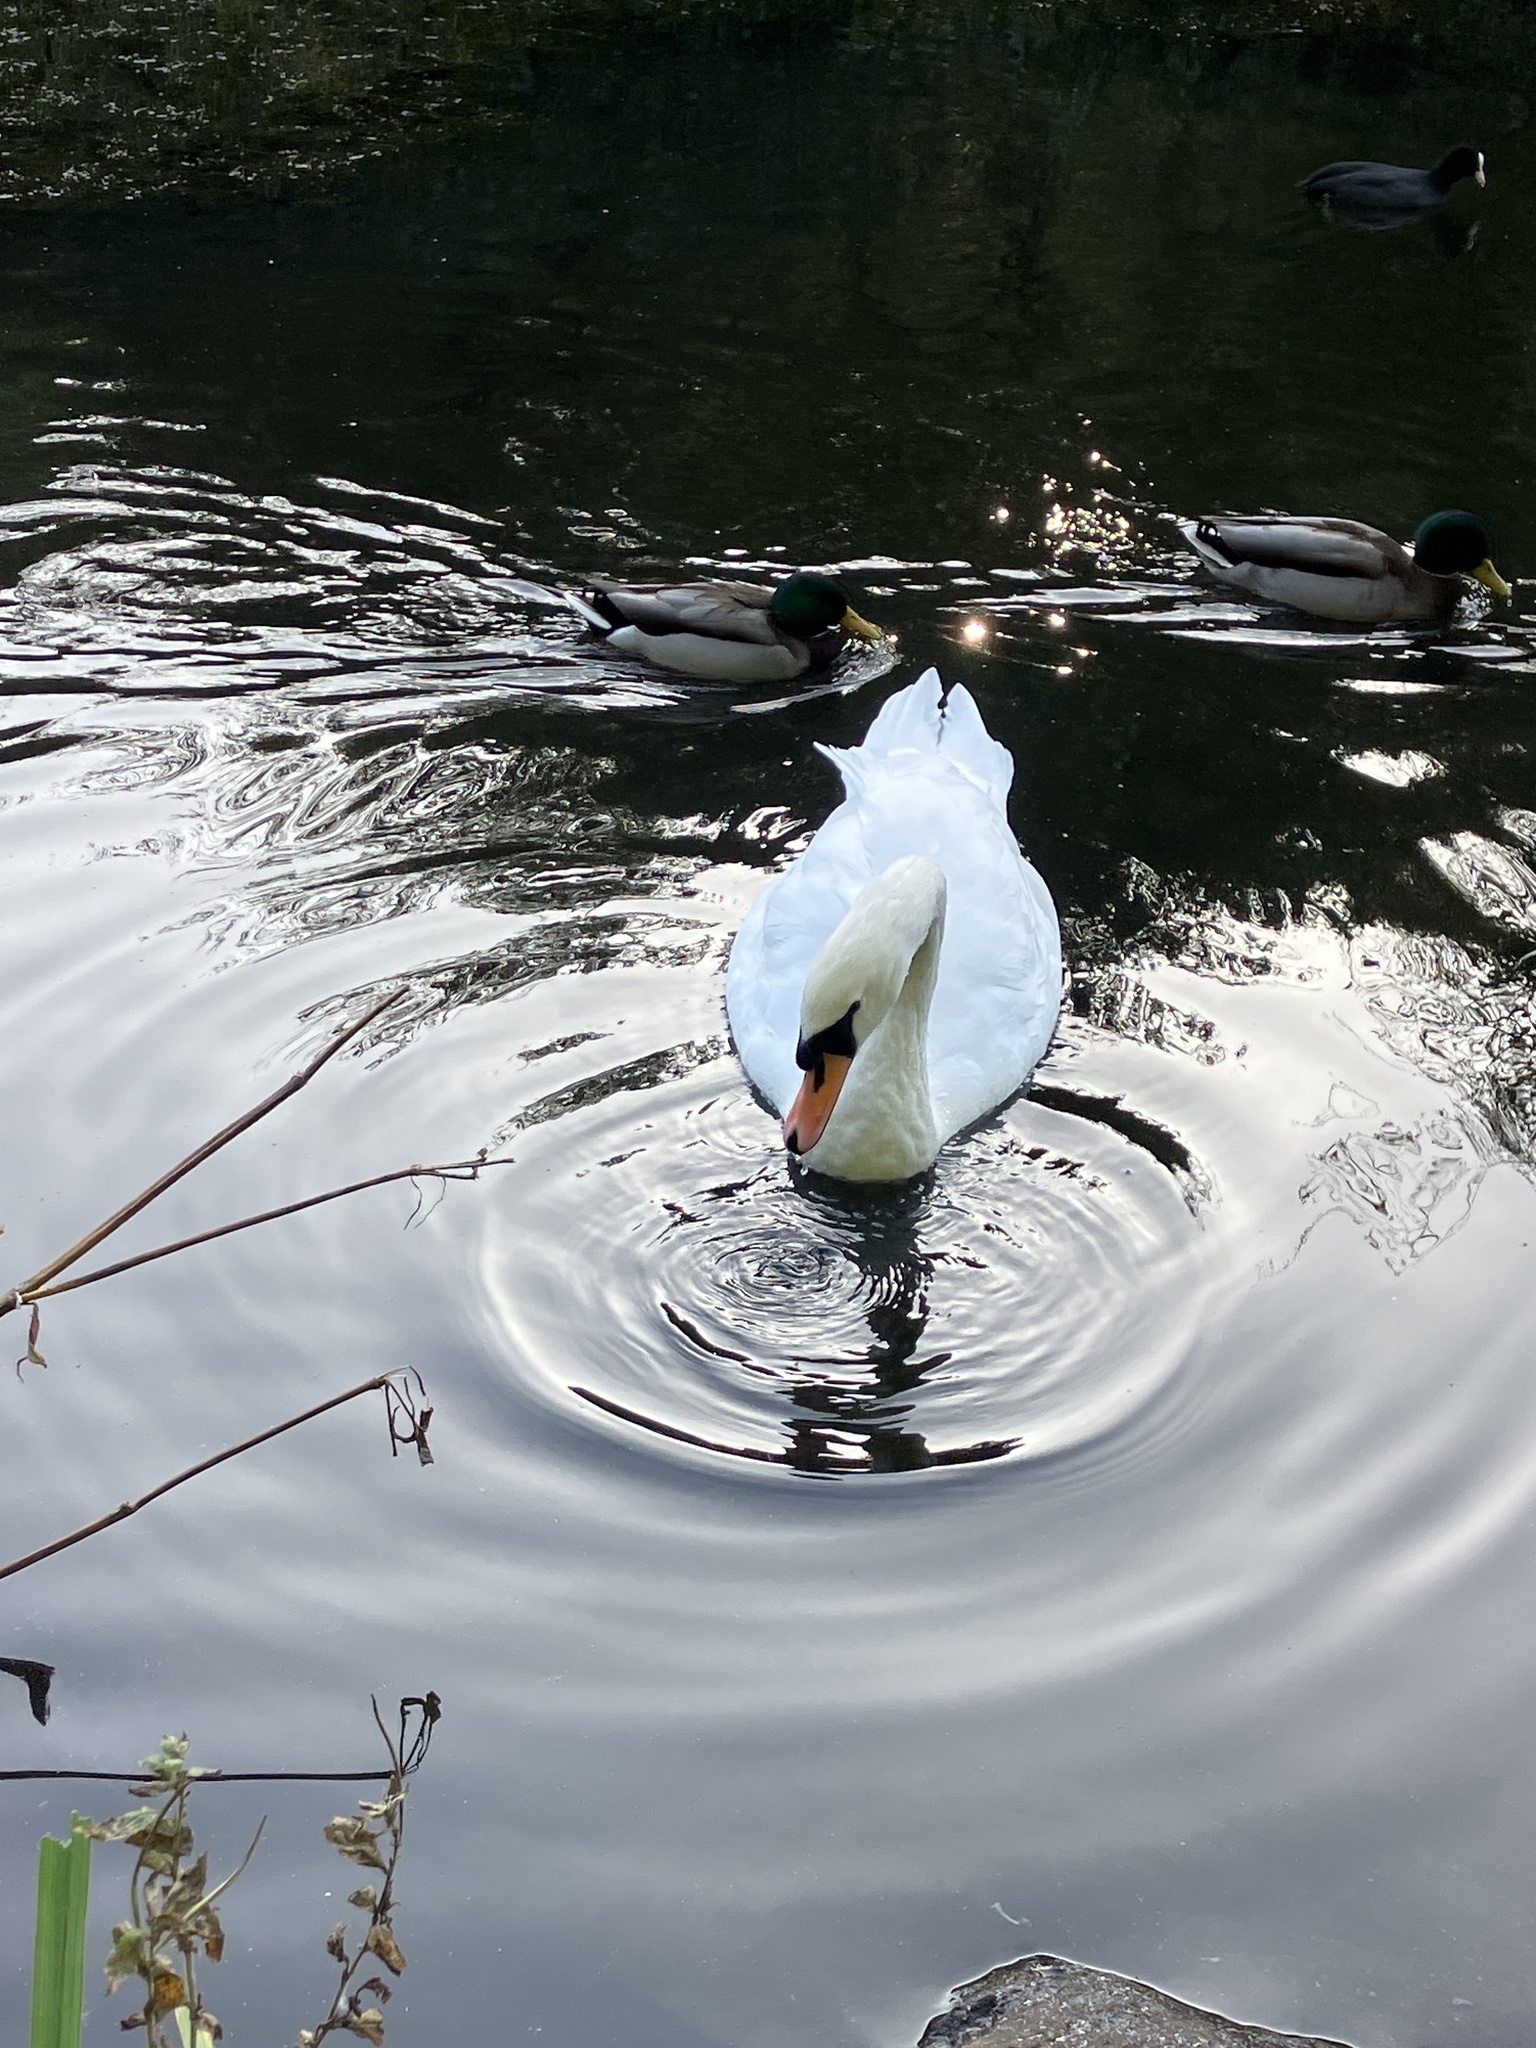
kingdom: Animalia
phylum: Chordata
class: Aves
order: Anseriformes
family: Anatidae
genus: Cygnus
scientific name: Cygnus olor
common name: Mute swan
